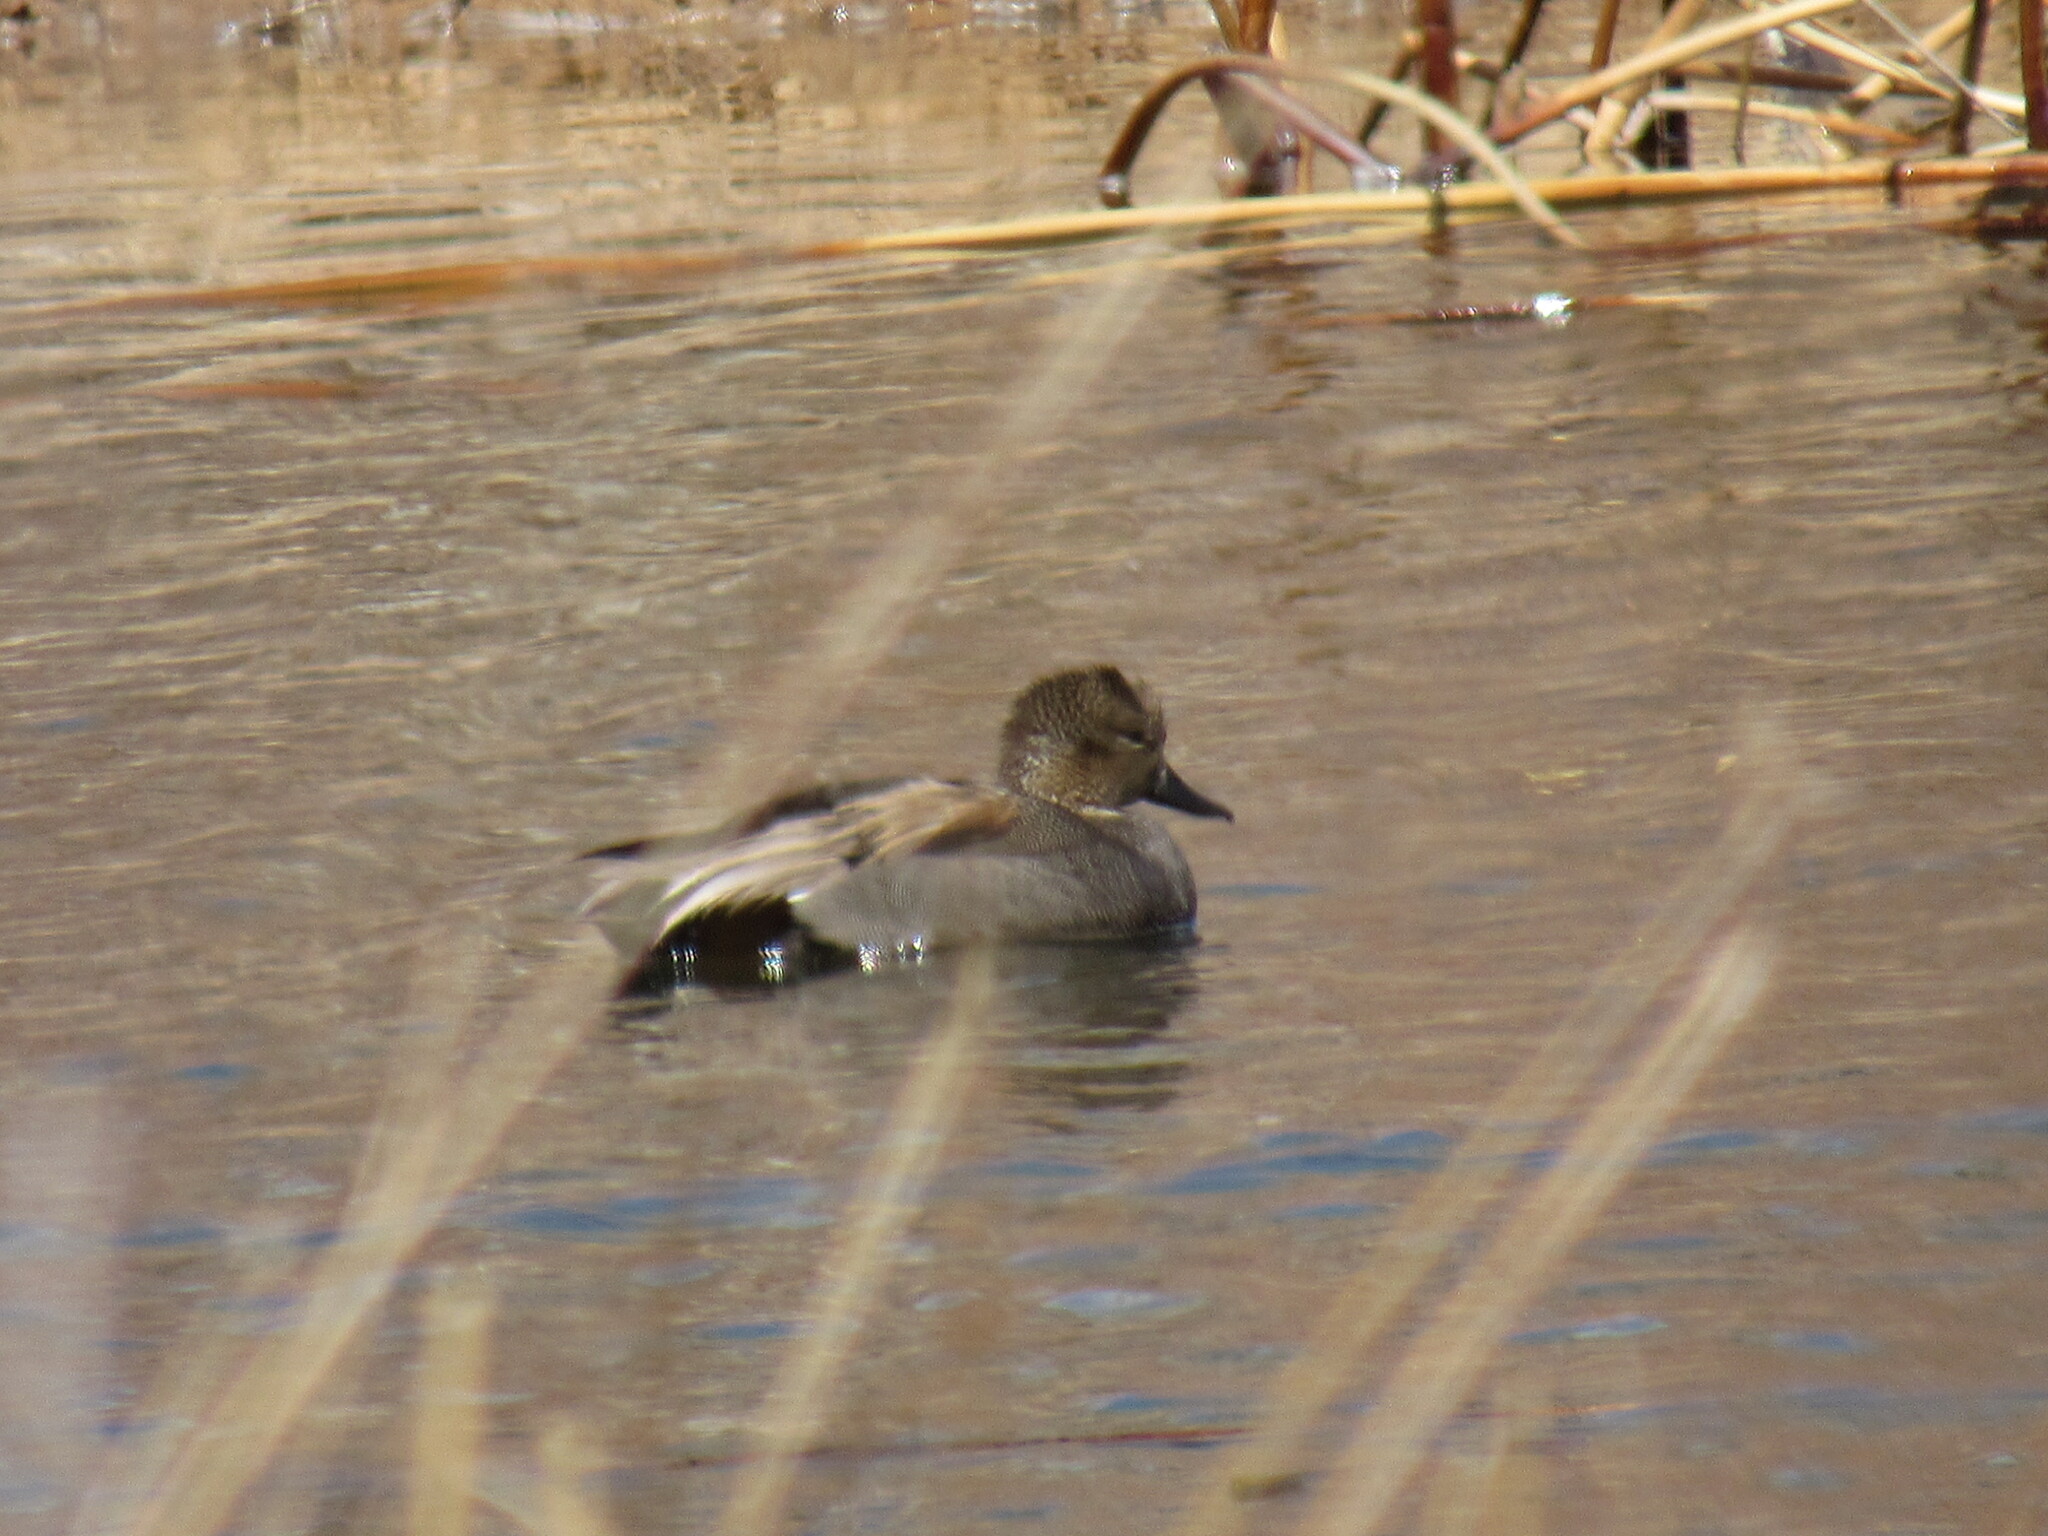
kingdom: Animalia
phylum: Chordata
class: Aves
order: Anseriformes
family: Anatidae
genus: Mareca
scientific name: Mareca strepera
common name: Gadwall
